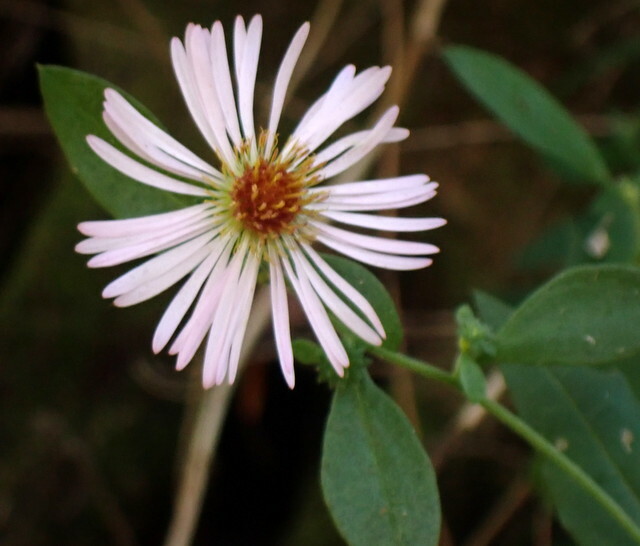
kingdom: Plantae
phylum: Tracheophyta
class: Magnoliopsida
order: Asterales
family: Asteraceae
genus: Ampelaster
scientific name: Ampelaster carolinianus
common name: Climbing aster
